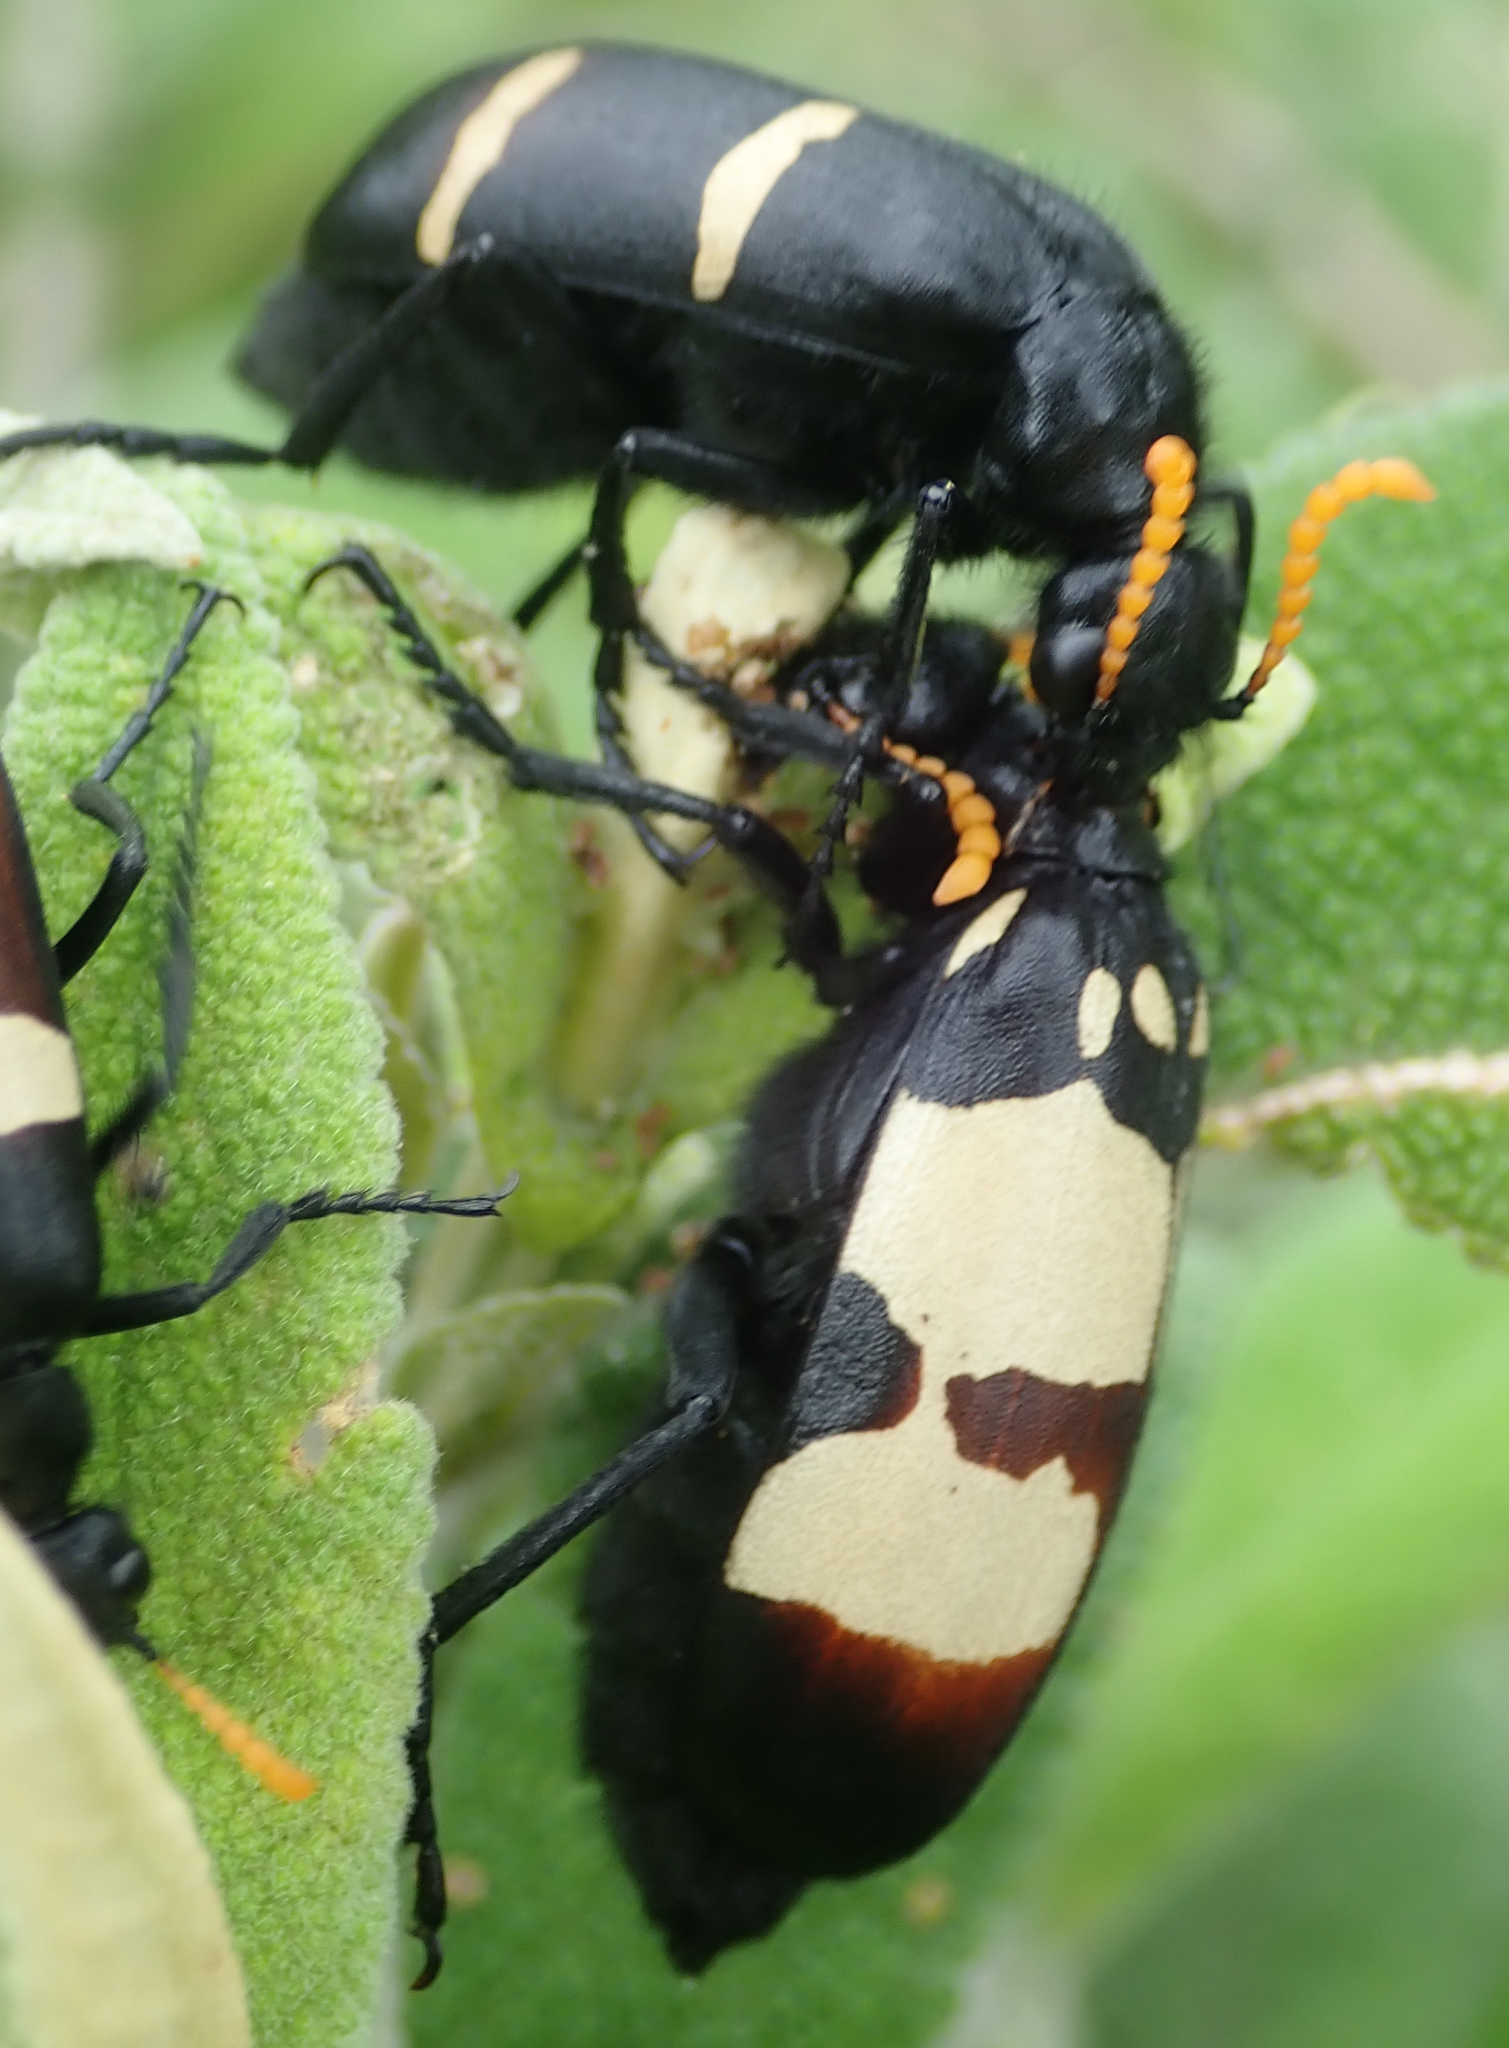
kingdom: Animalia
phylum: Arthropoda
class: Insecta
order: Coleoptera
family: Meloidae
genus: Hycleus
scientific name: Hycleus
